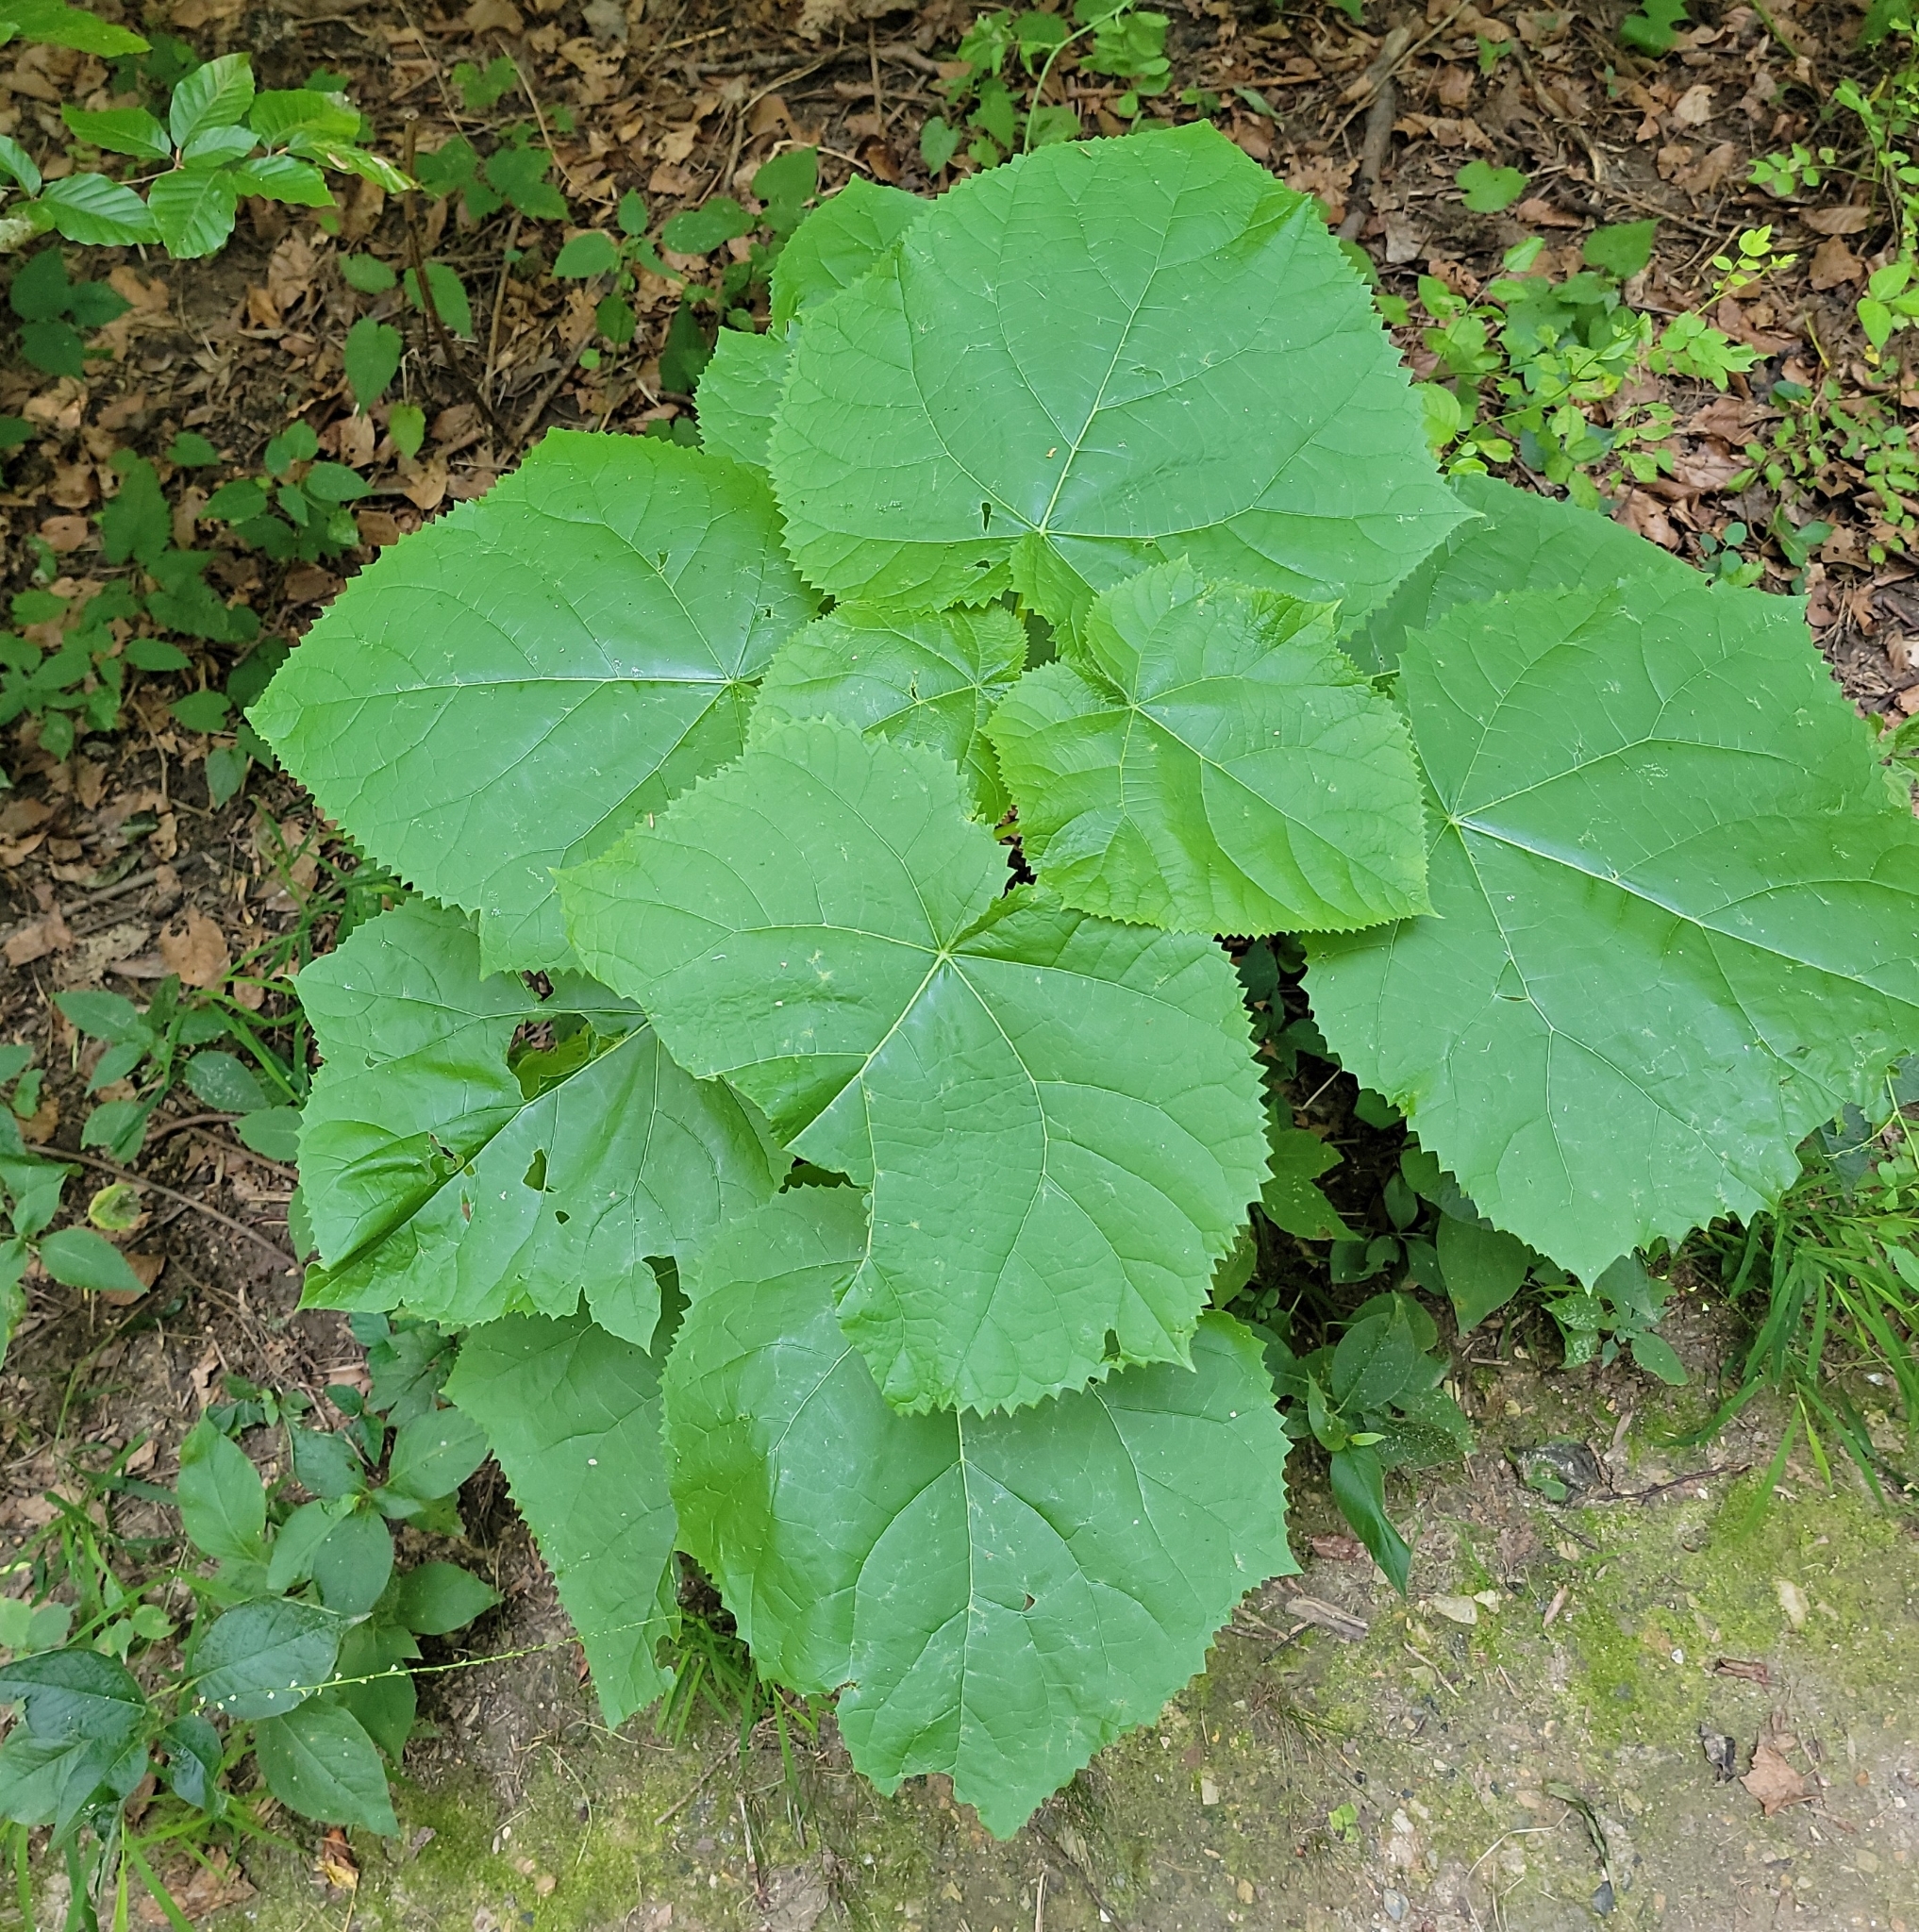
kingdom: Plantae
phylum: Tracheophyta
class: Magnoliopsida
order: Lamiales
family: Paulowniaceae
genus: Paulownia
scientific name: Paulownia tomentosa
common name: Foxglove-tree
